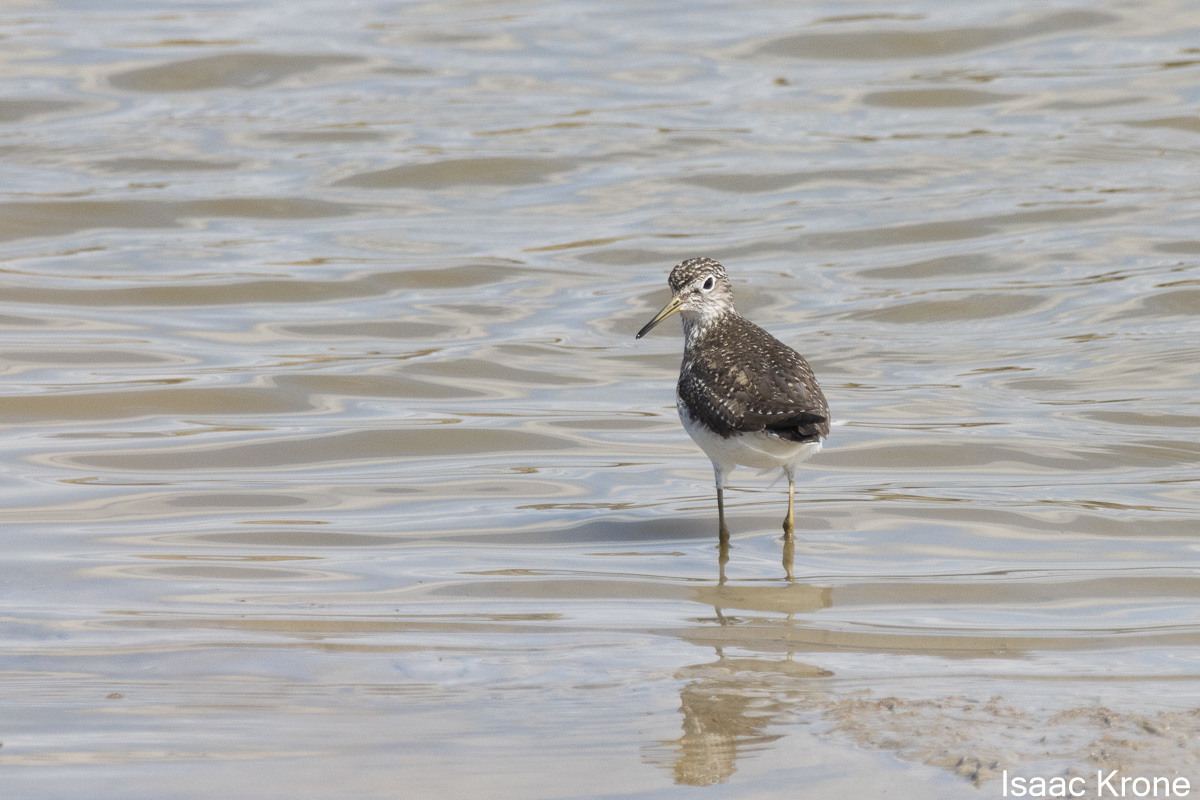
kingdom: Animalia
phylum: Chordata
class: Aves
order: Charadriiformes
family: Scolopacidae
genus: Tringa
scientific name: Tringa solitaria
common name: Solitary sandpiper
